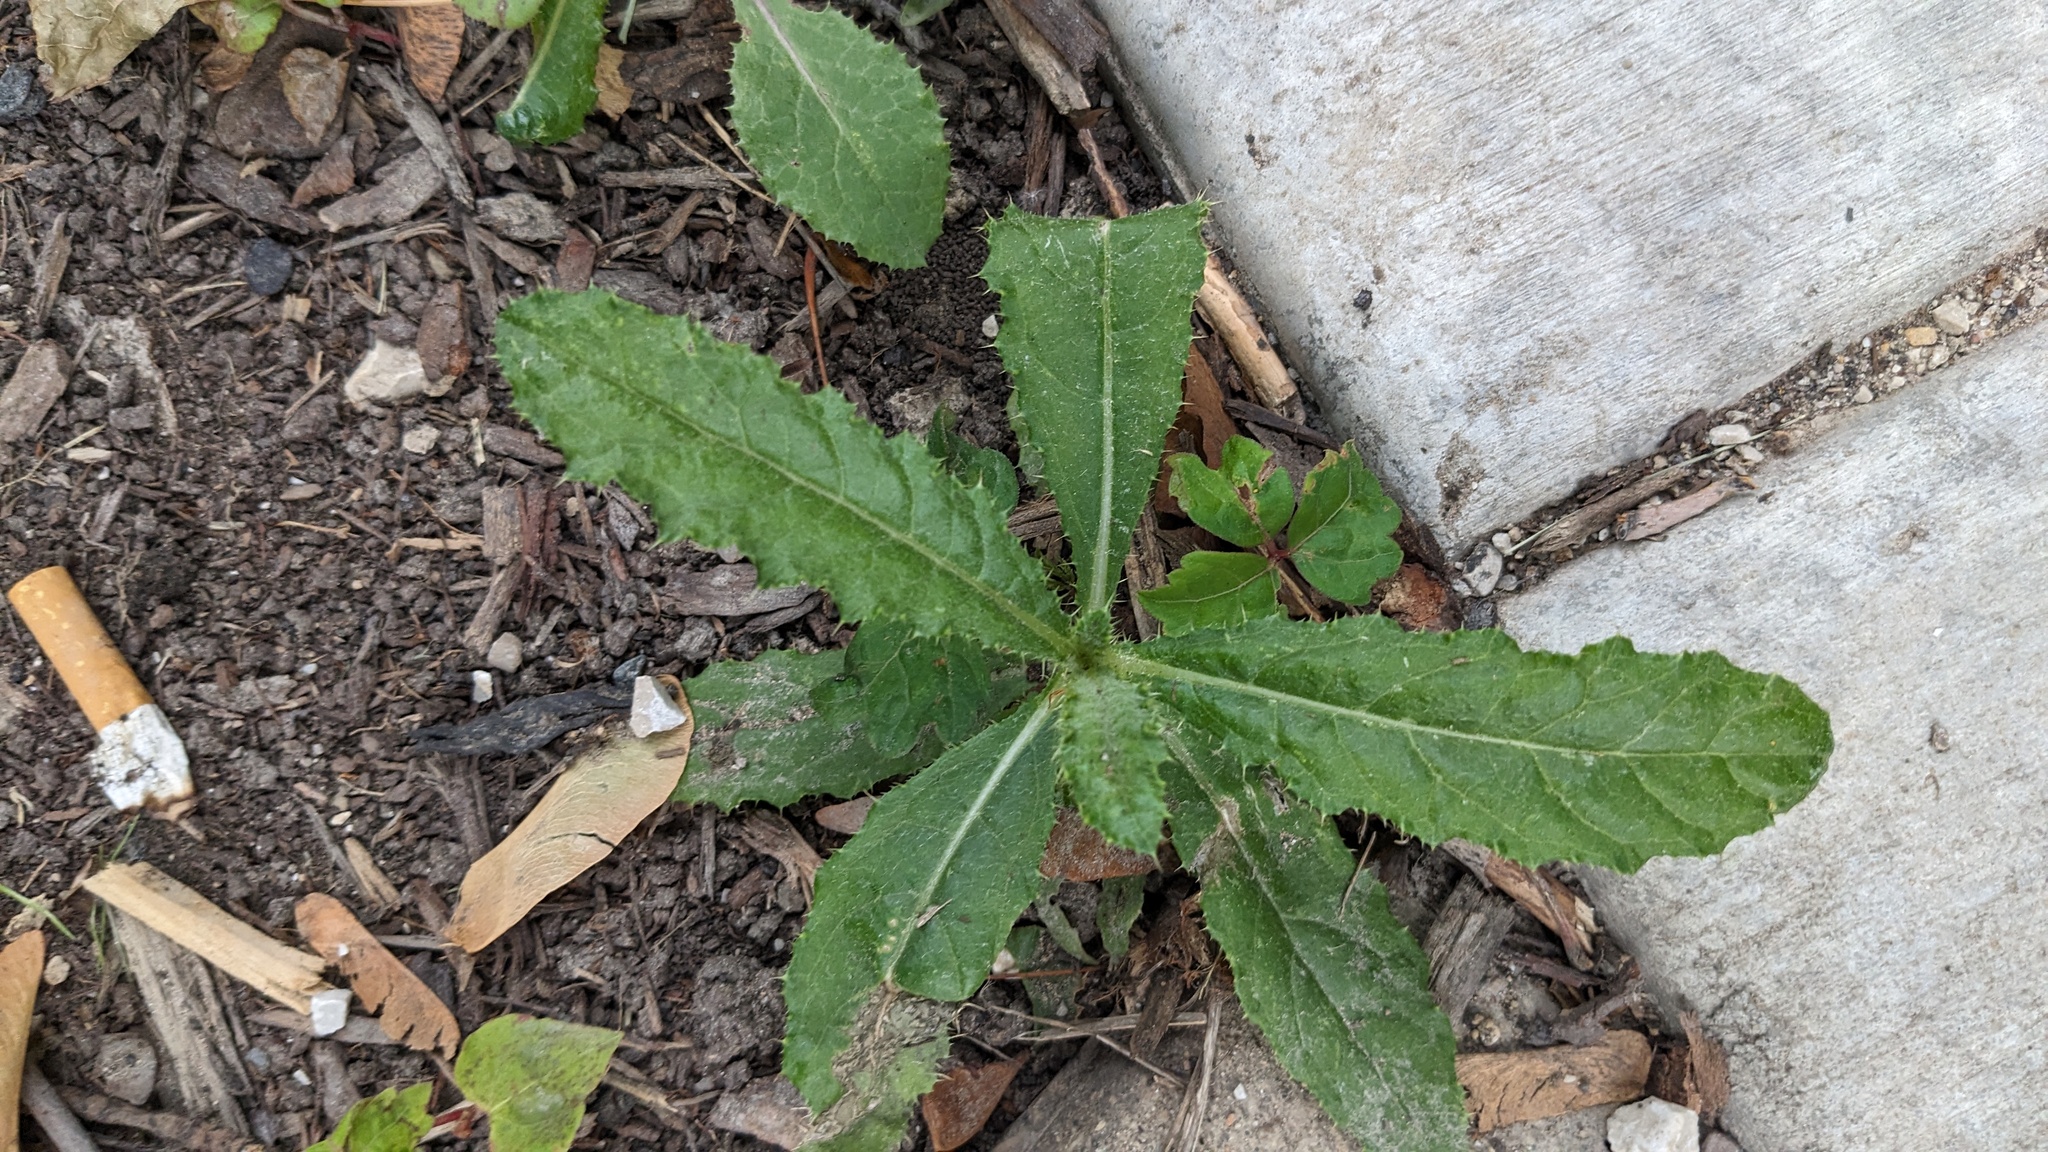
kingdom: Plantae
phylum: Tracheophyta
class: Magnoliopsida
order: Asterales
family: Asteraceae
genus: Cirsium
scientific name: Cirsium arvense
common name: Creeping thistle
